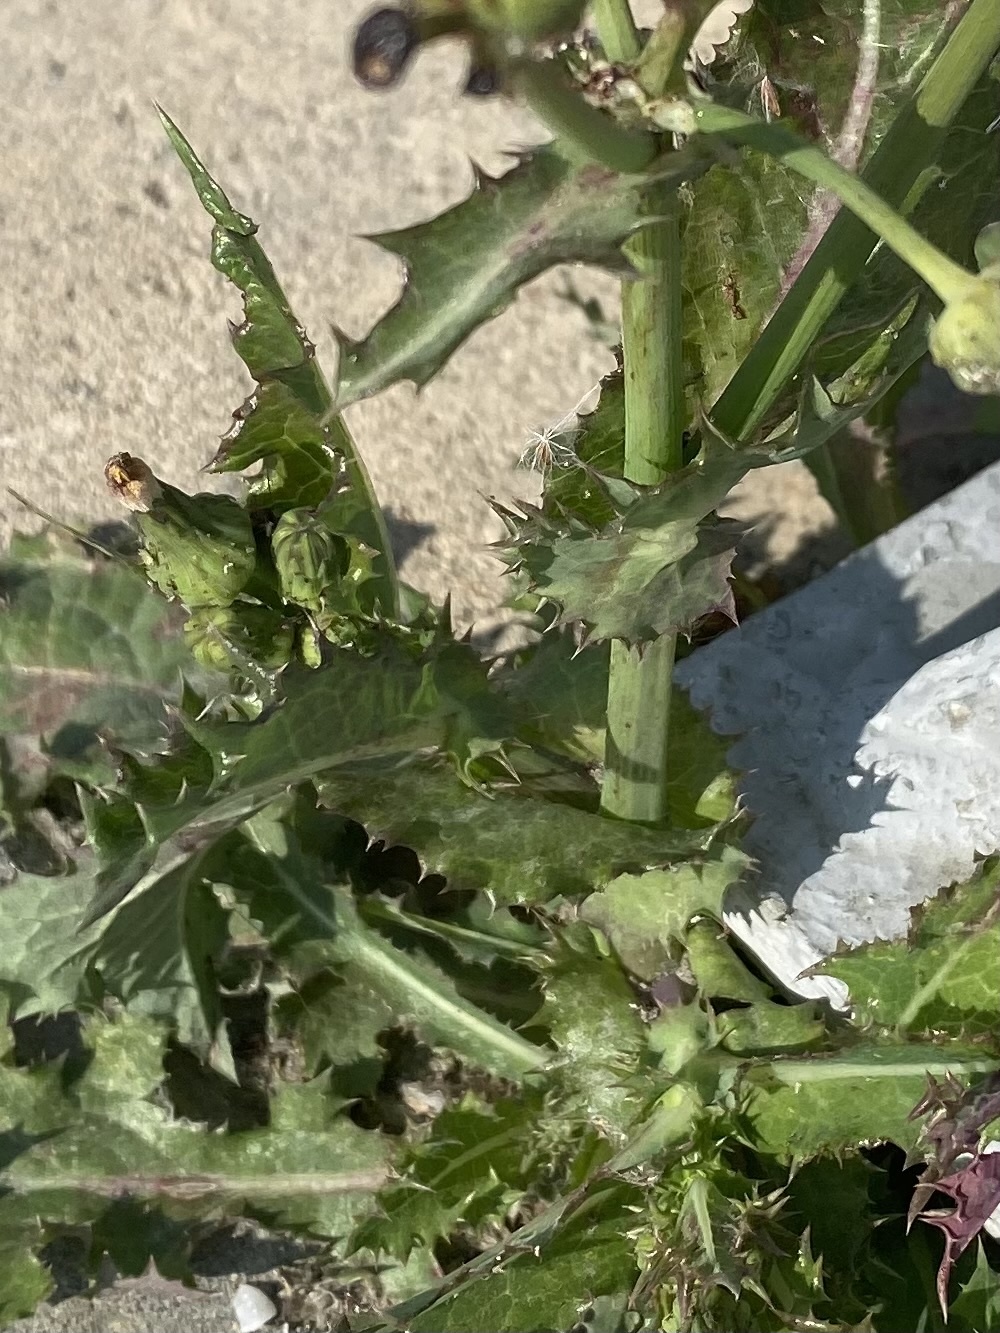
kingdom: Plantae
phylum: Tracheophyta
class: Magnoliopsida
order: Asterales
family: Asteraceae
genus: Sonchus
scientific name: Sonchus asper
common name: Prickly sow-thistle
